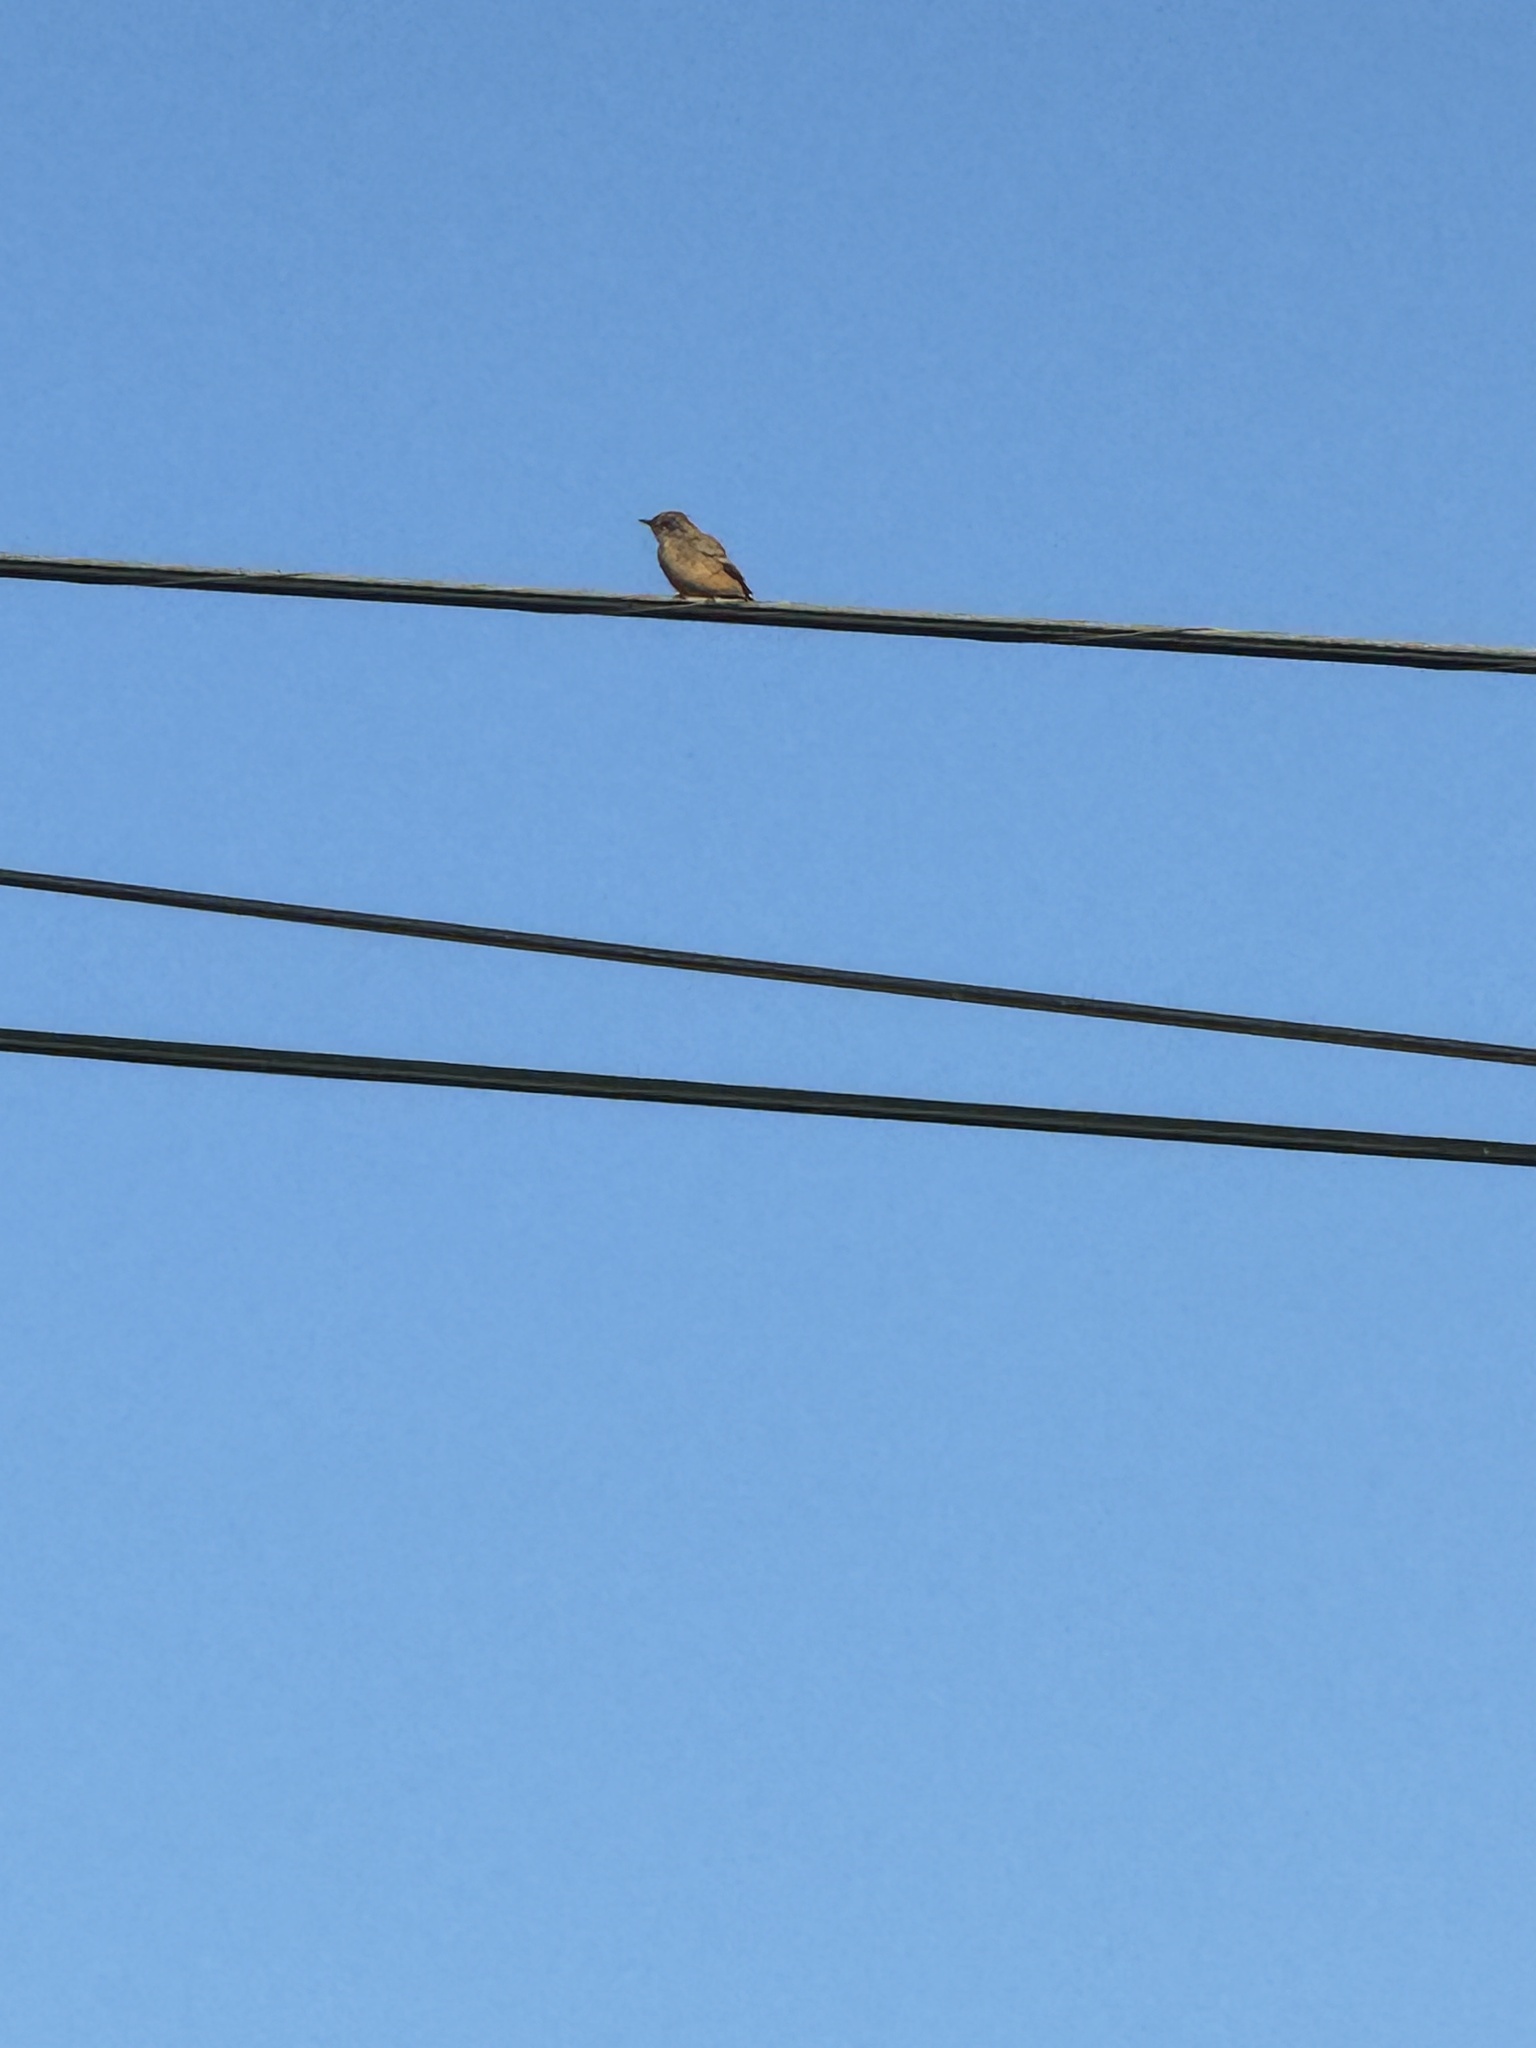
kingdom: Animalia
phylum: Chordata
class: Aves
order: Passeriformes
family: Tyrannidae
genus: Sayornis
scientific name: Sayornis saya
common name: Say's phoebe
